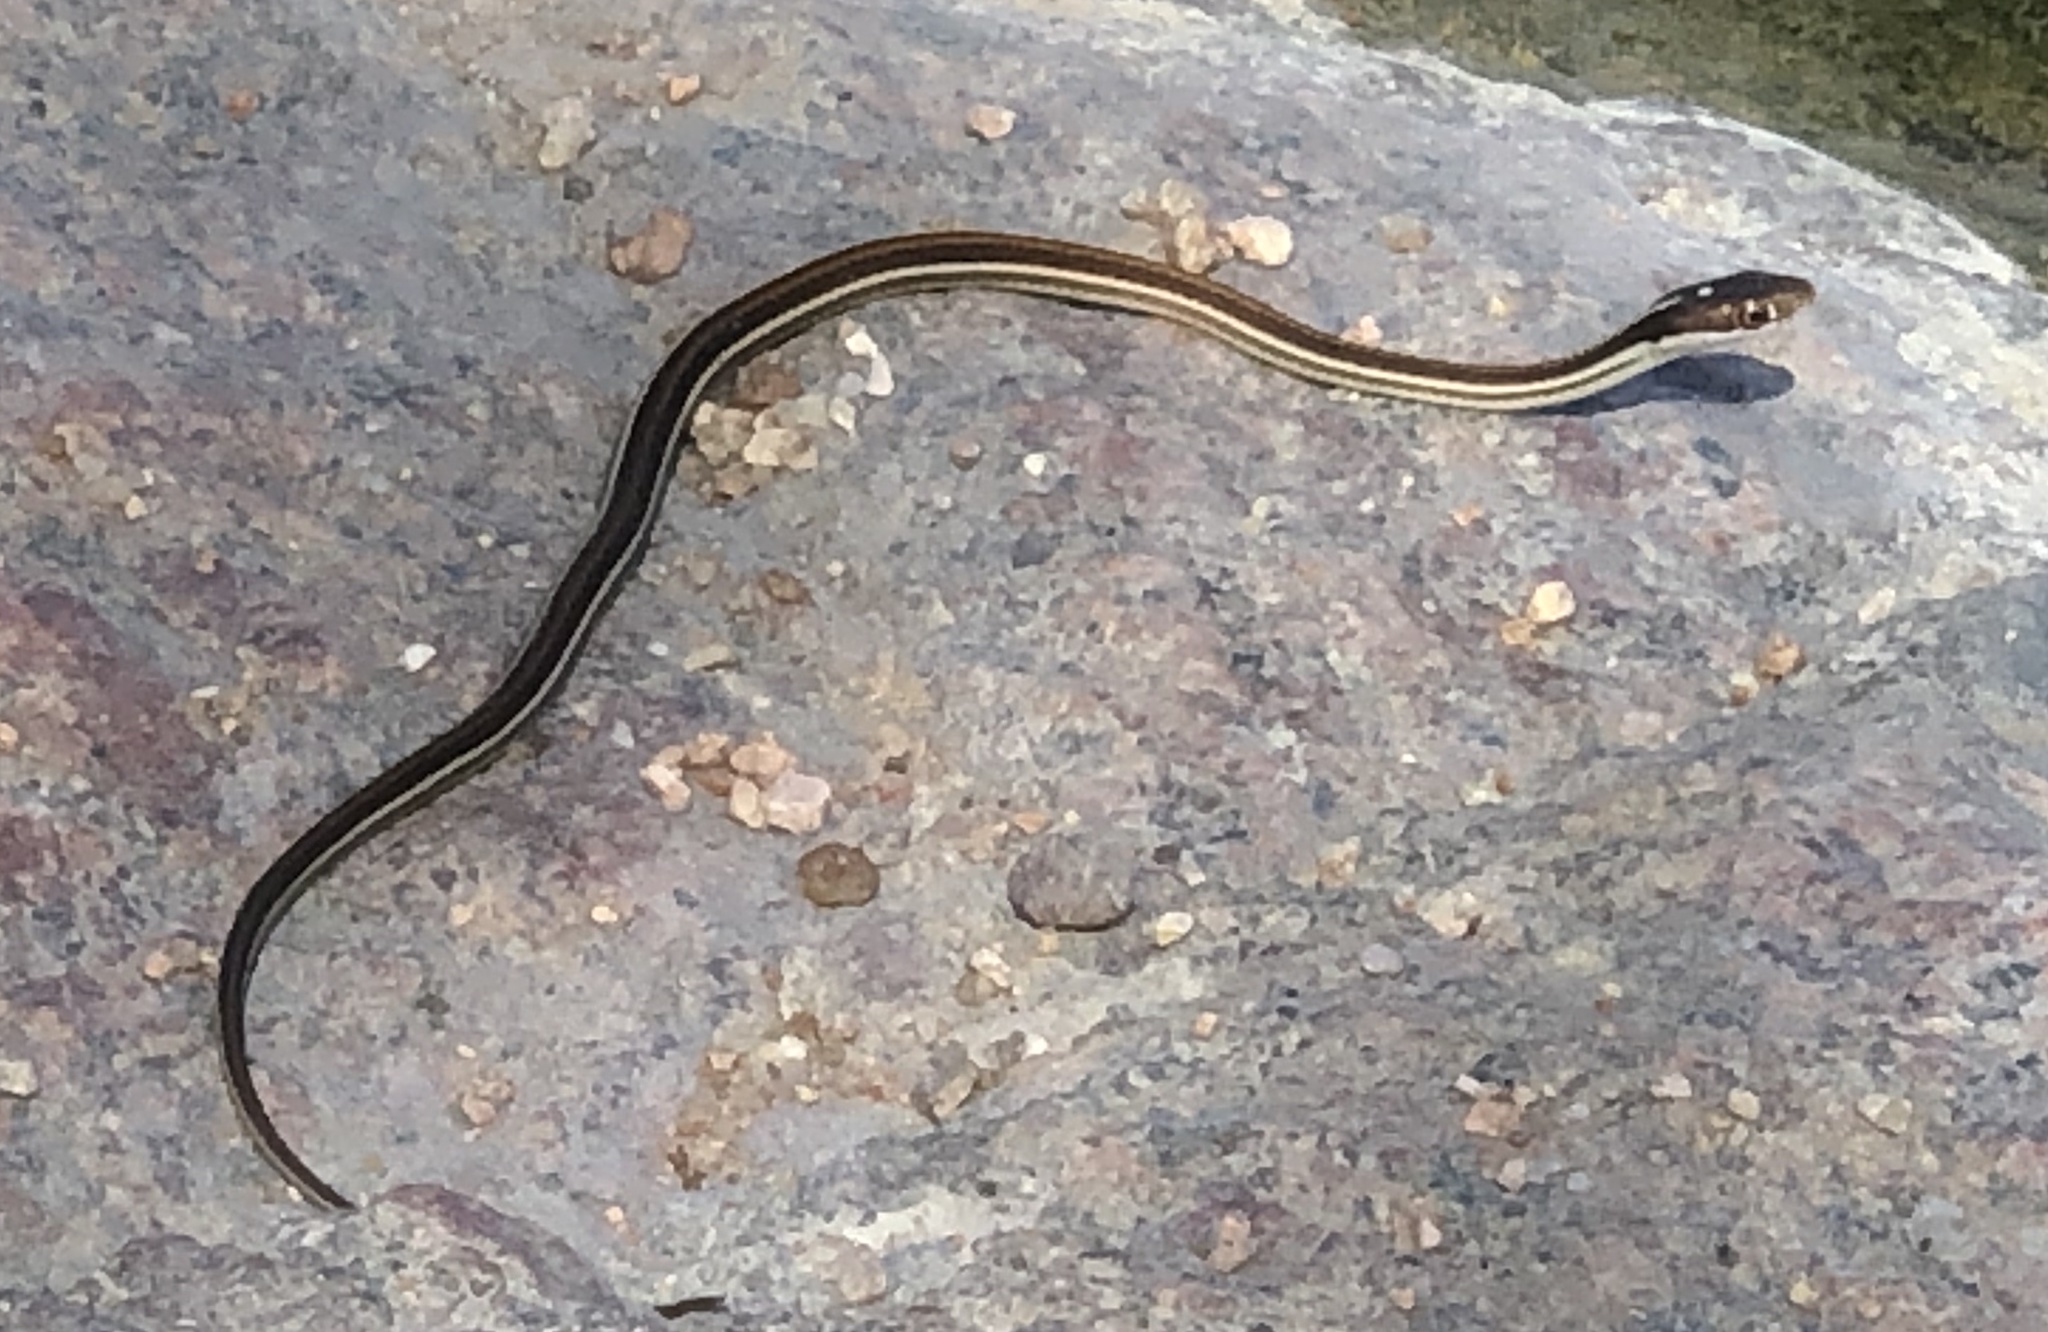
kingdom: Animalia
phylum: Chordata
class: Squamata
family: Colubridae
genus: Thamnophis
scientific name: Thamnophis proximus
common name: Western ribbon snake
